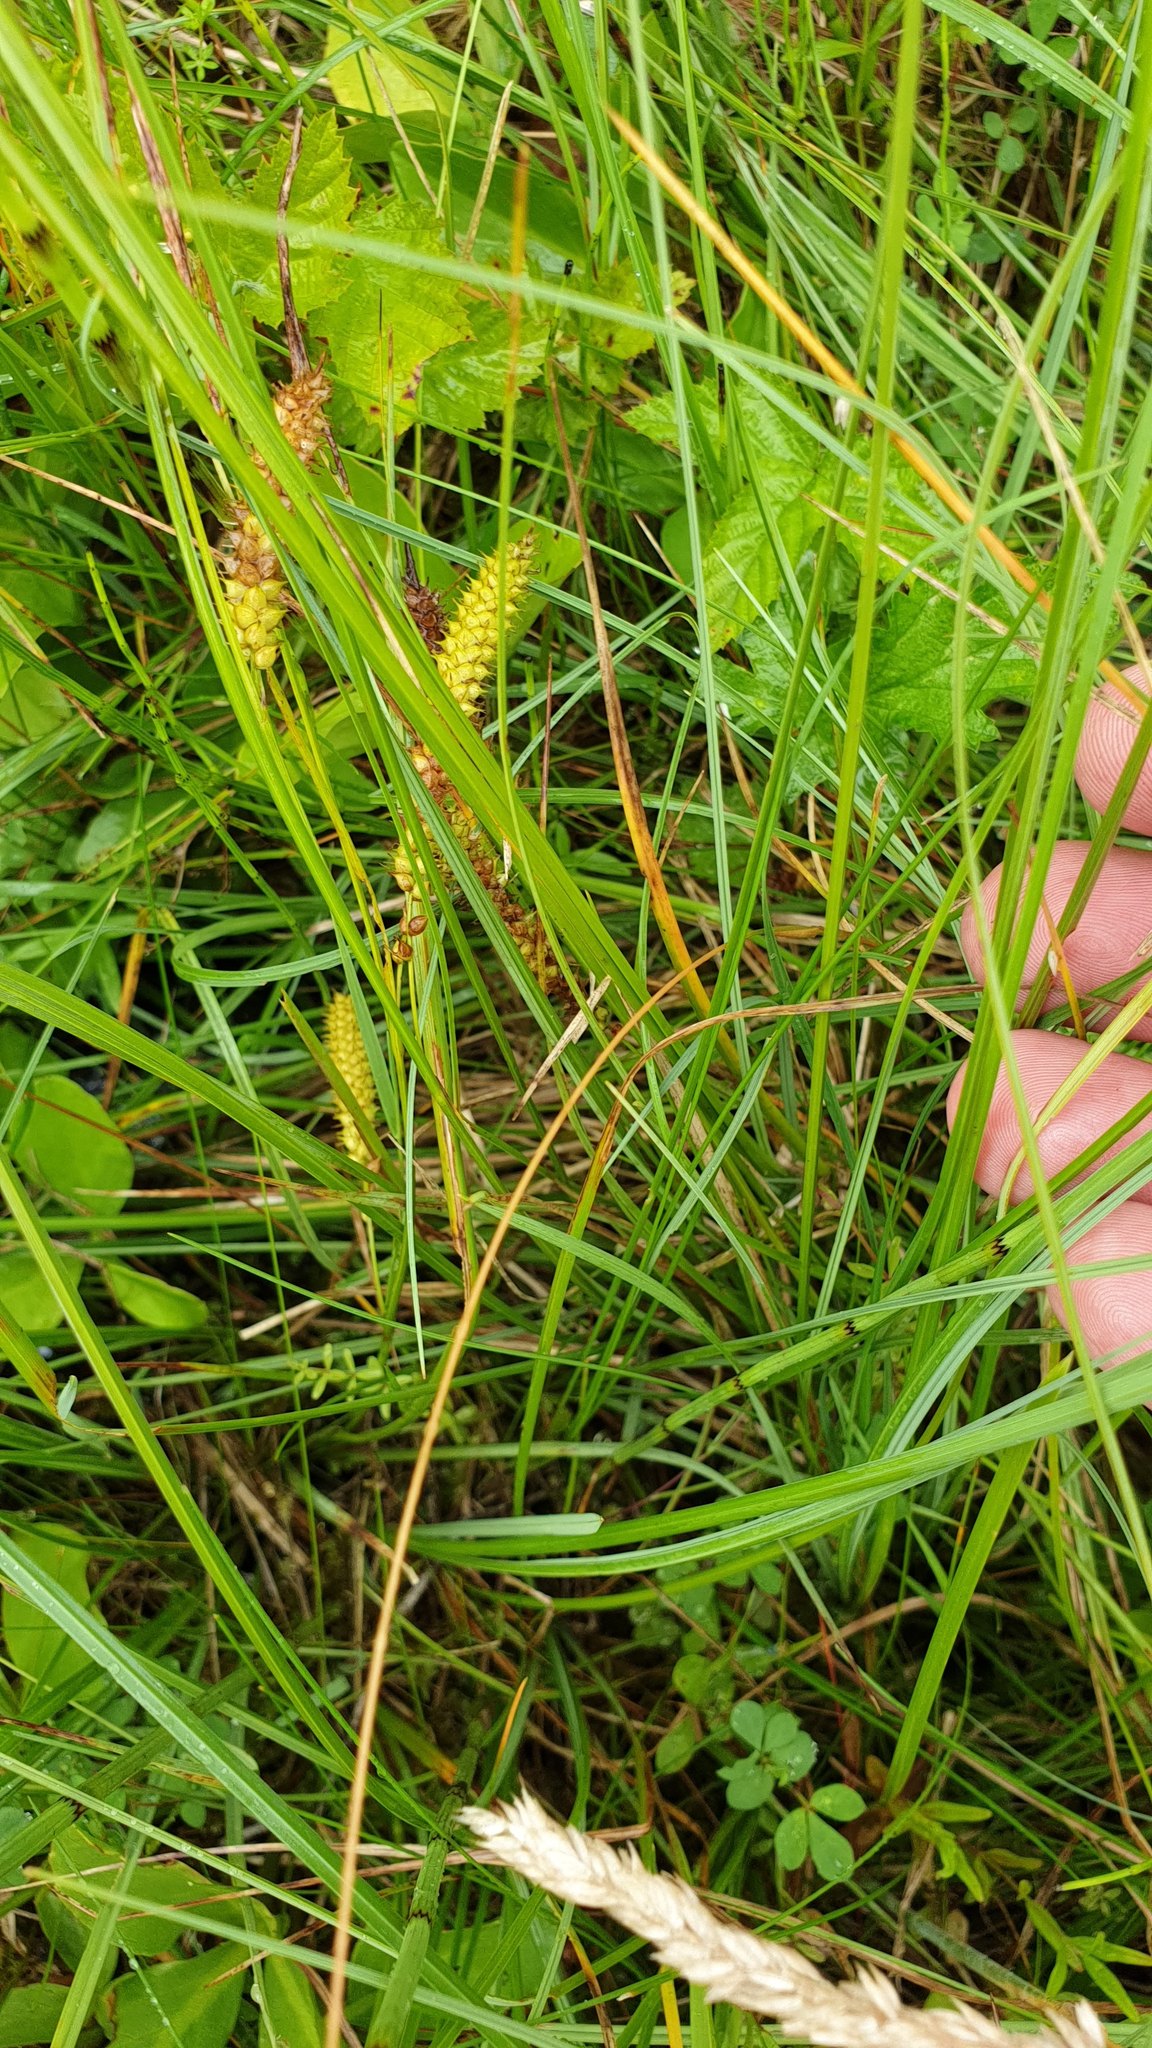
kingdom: Plantae
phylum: Tracheophyta
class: Liliopsida
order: Poales
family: Cyperaceae
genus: Carex
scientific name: Carex rostrata
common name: Bottle sedge
